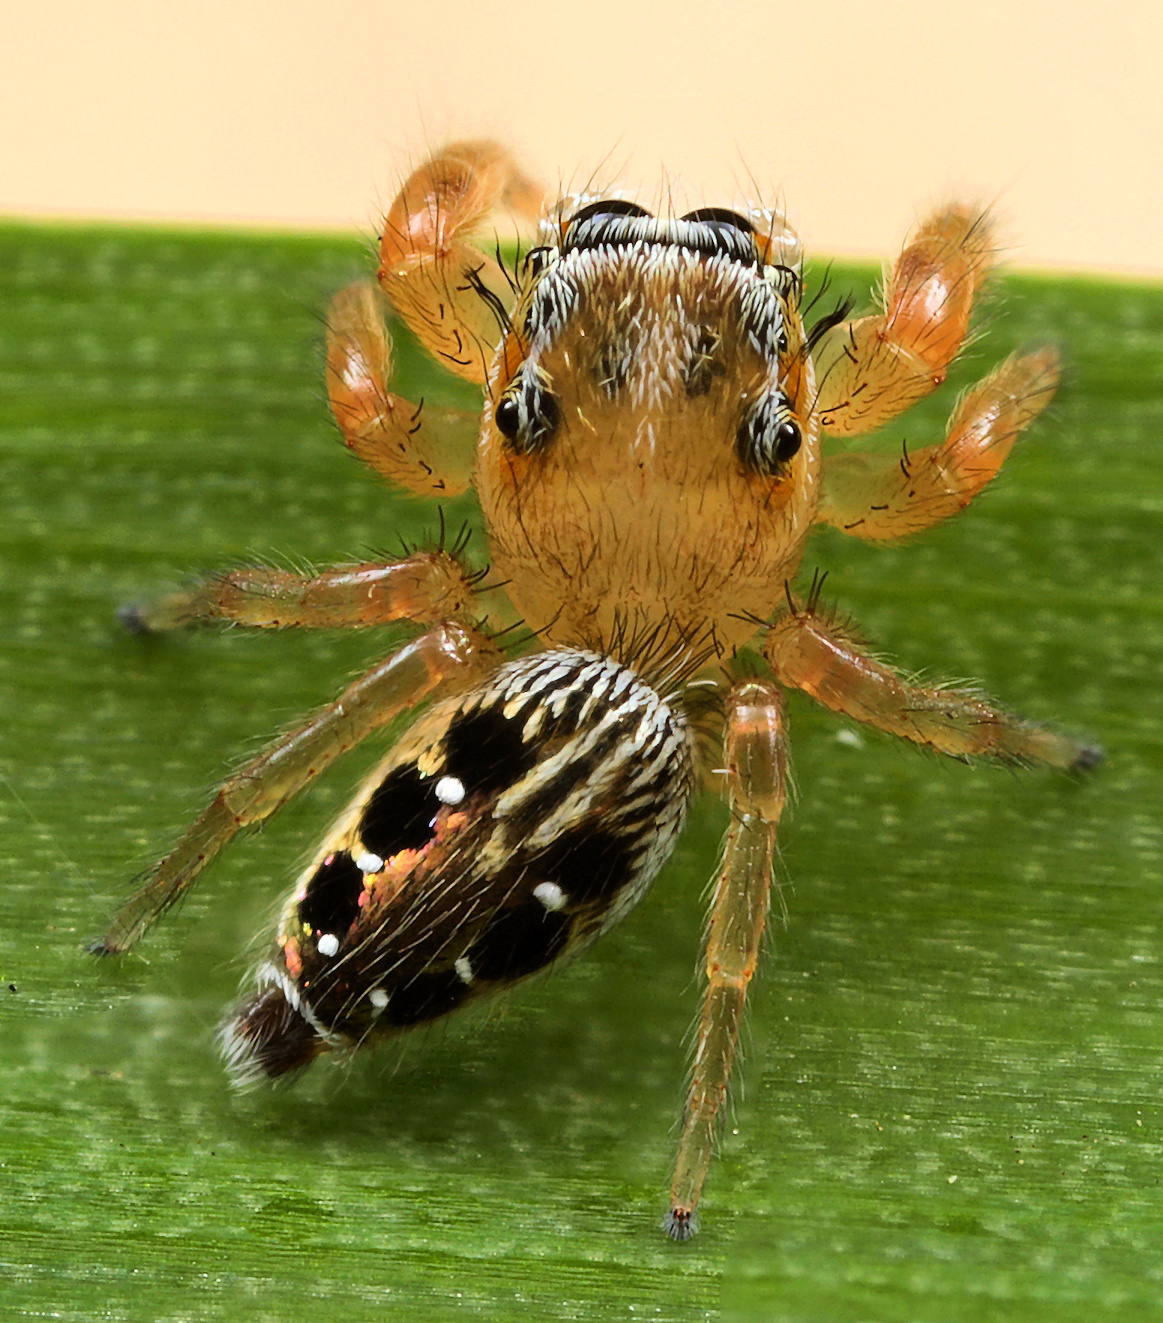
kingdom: Animalia
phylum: Arthropoda
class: Arachnida
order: Araneae
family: Salticidae
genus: Thyene
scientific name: Thyene coccineovittata
